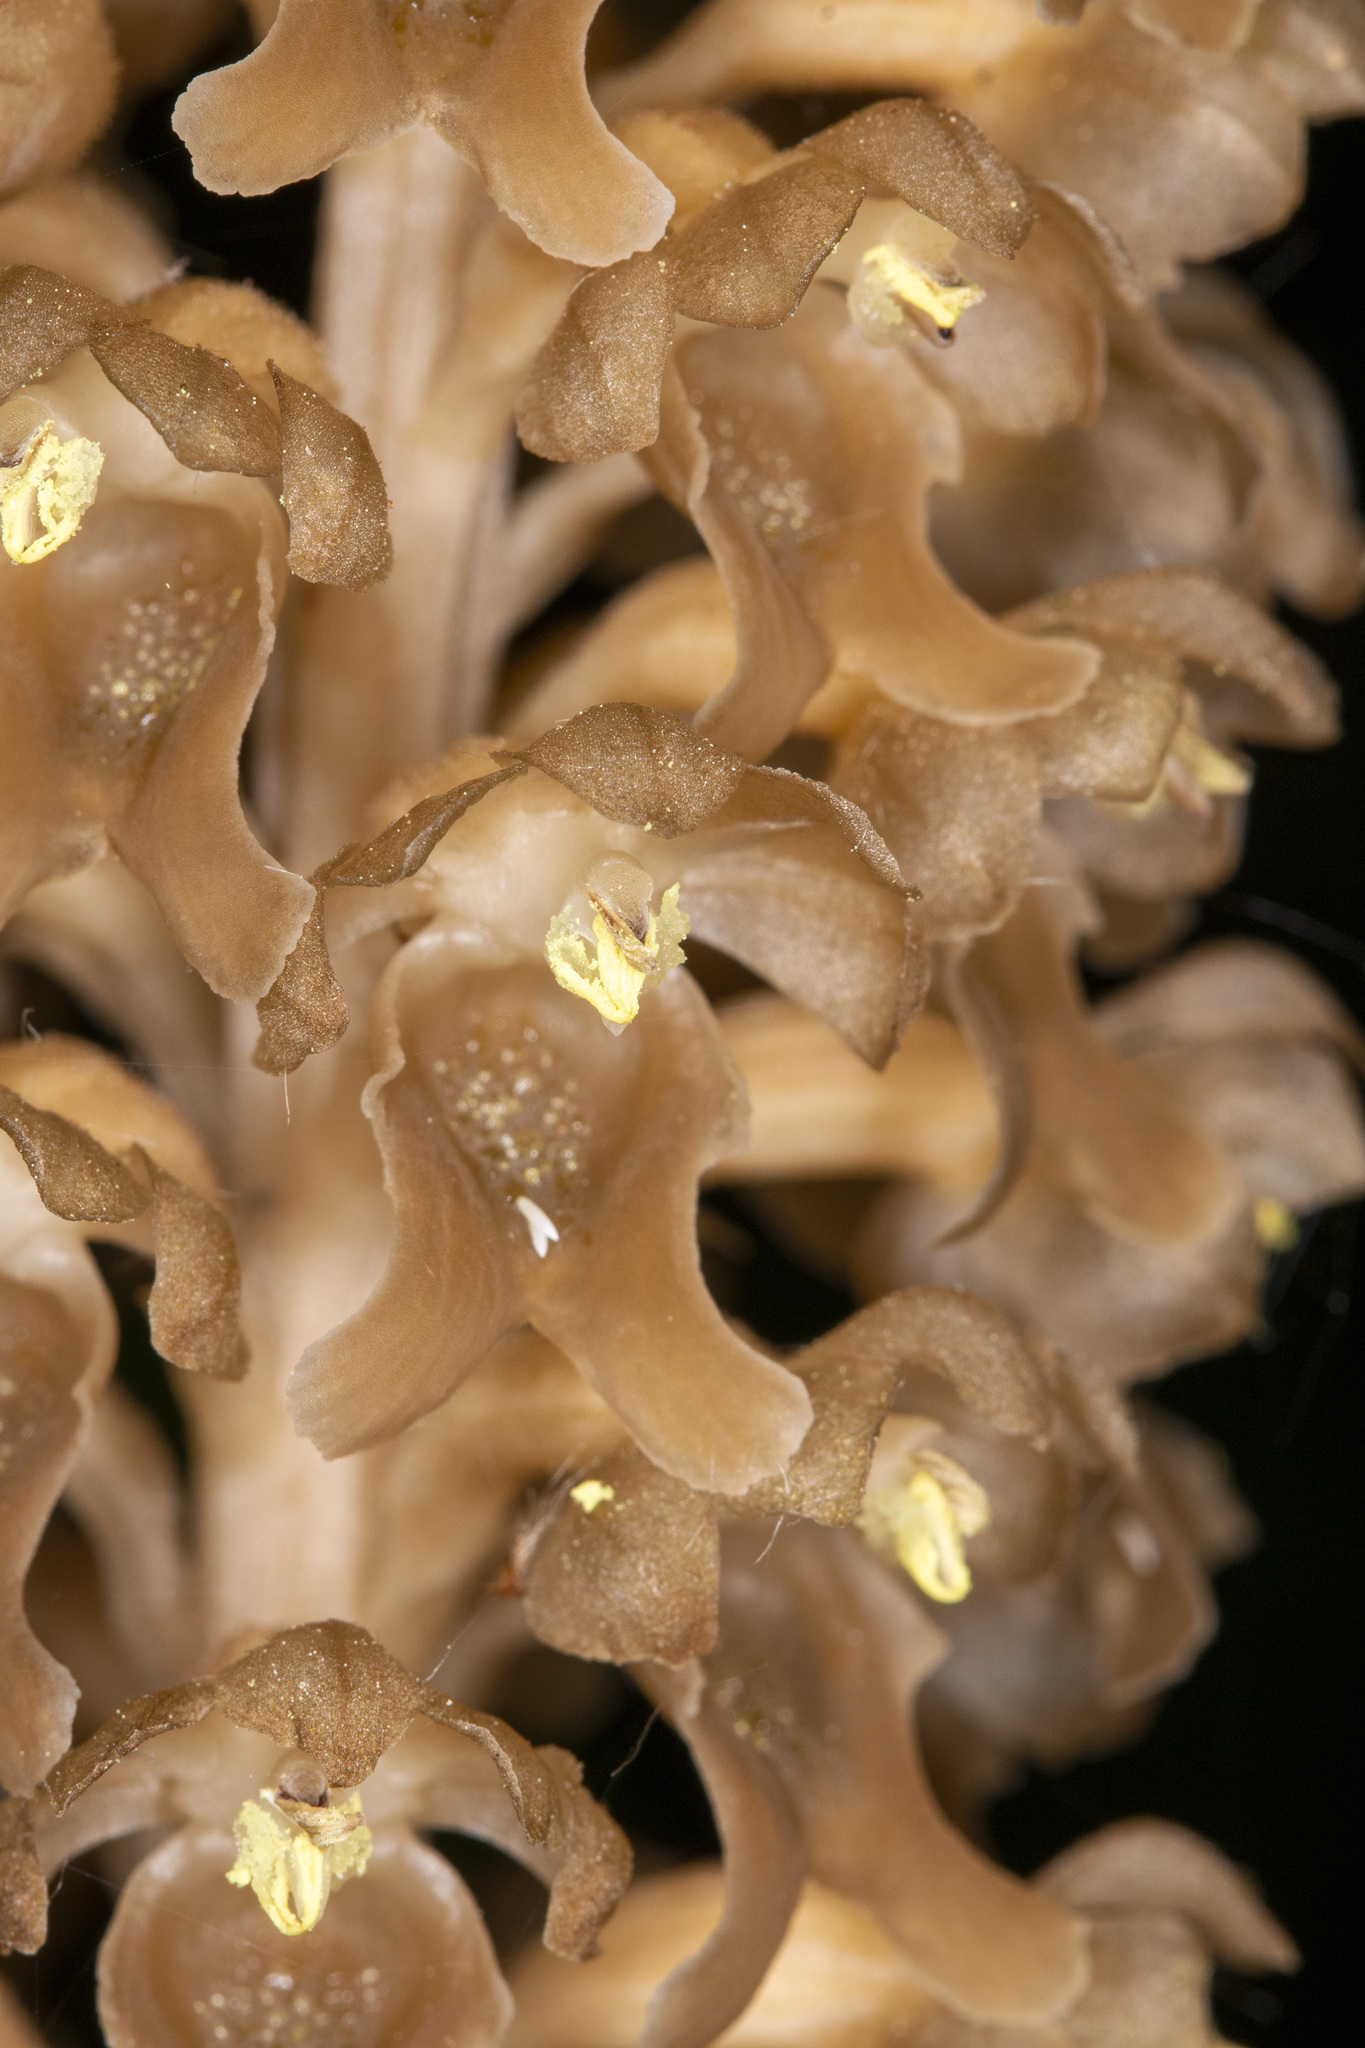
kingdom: Plantae
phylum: Tracheophyta
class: Liliopsida
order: Asparagales
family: Orchidaceae
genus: Neottia
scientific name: Neottia nidus-avis
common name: Bird's-nest orchid
